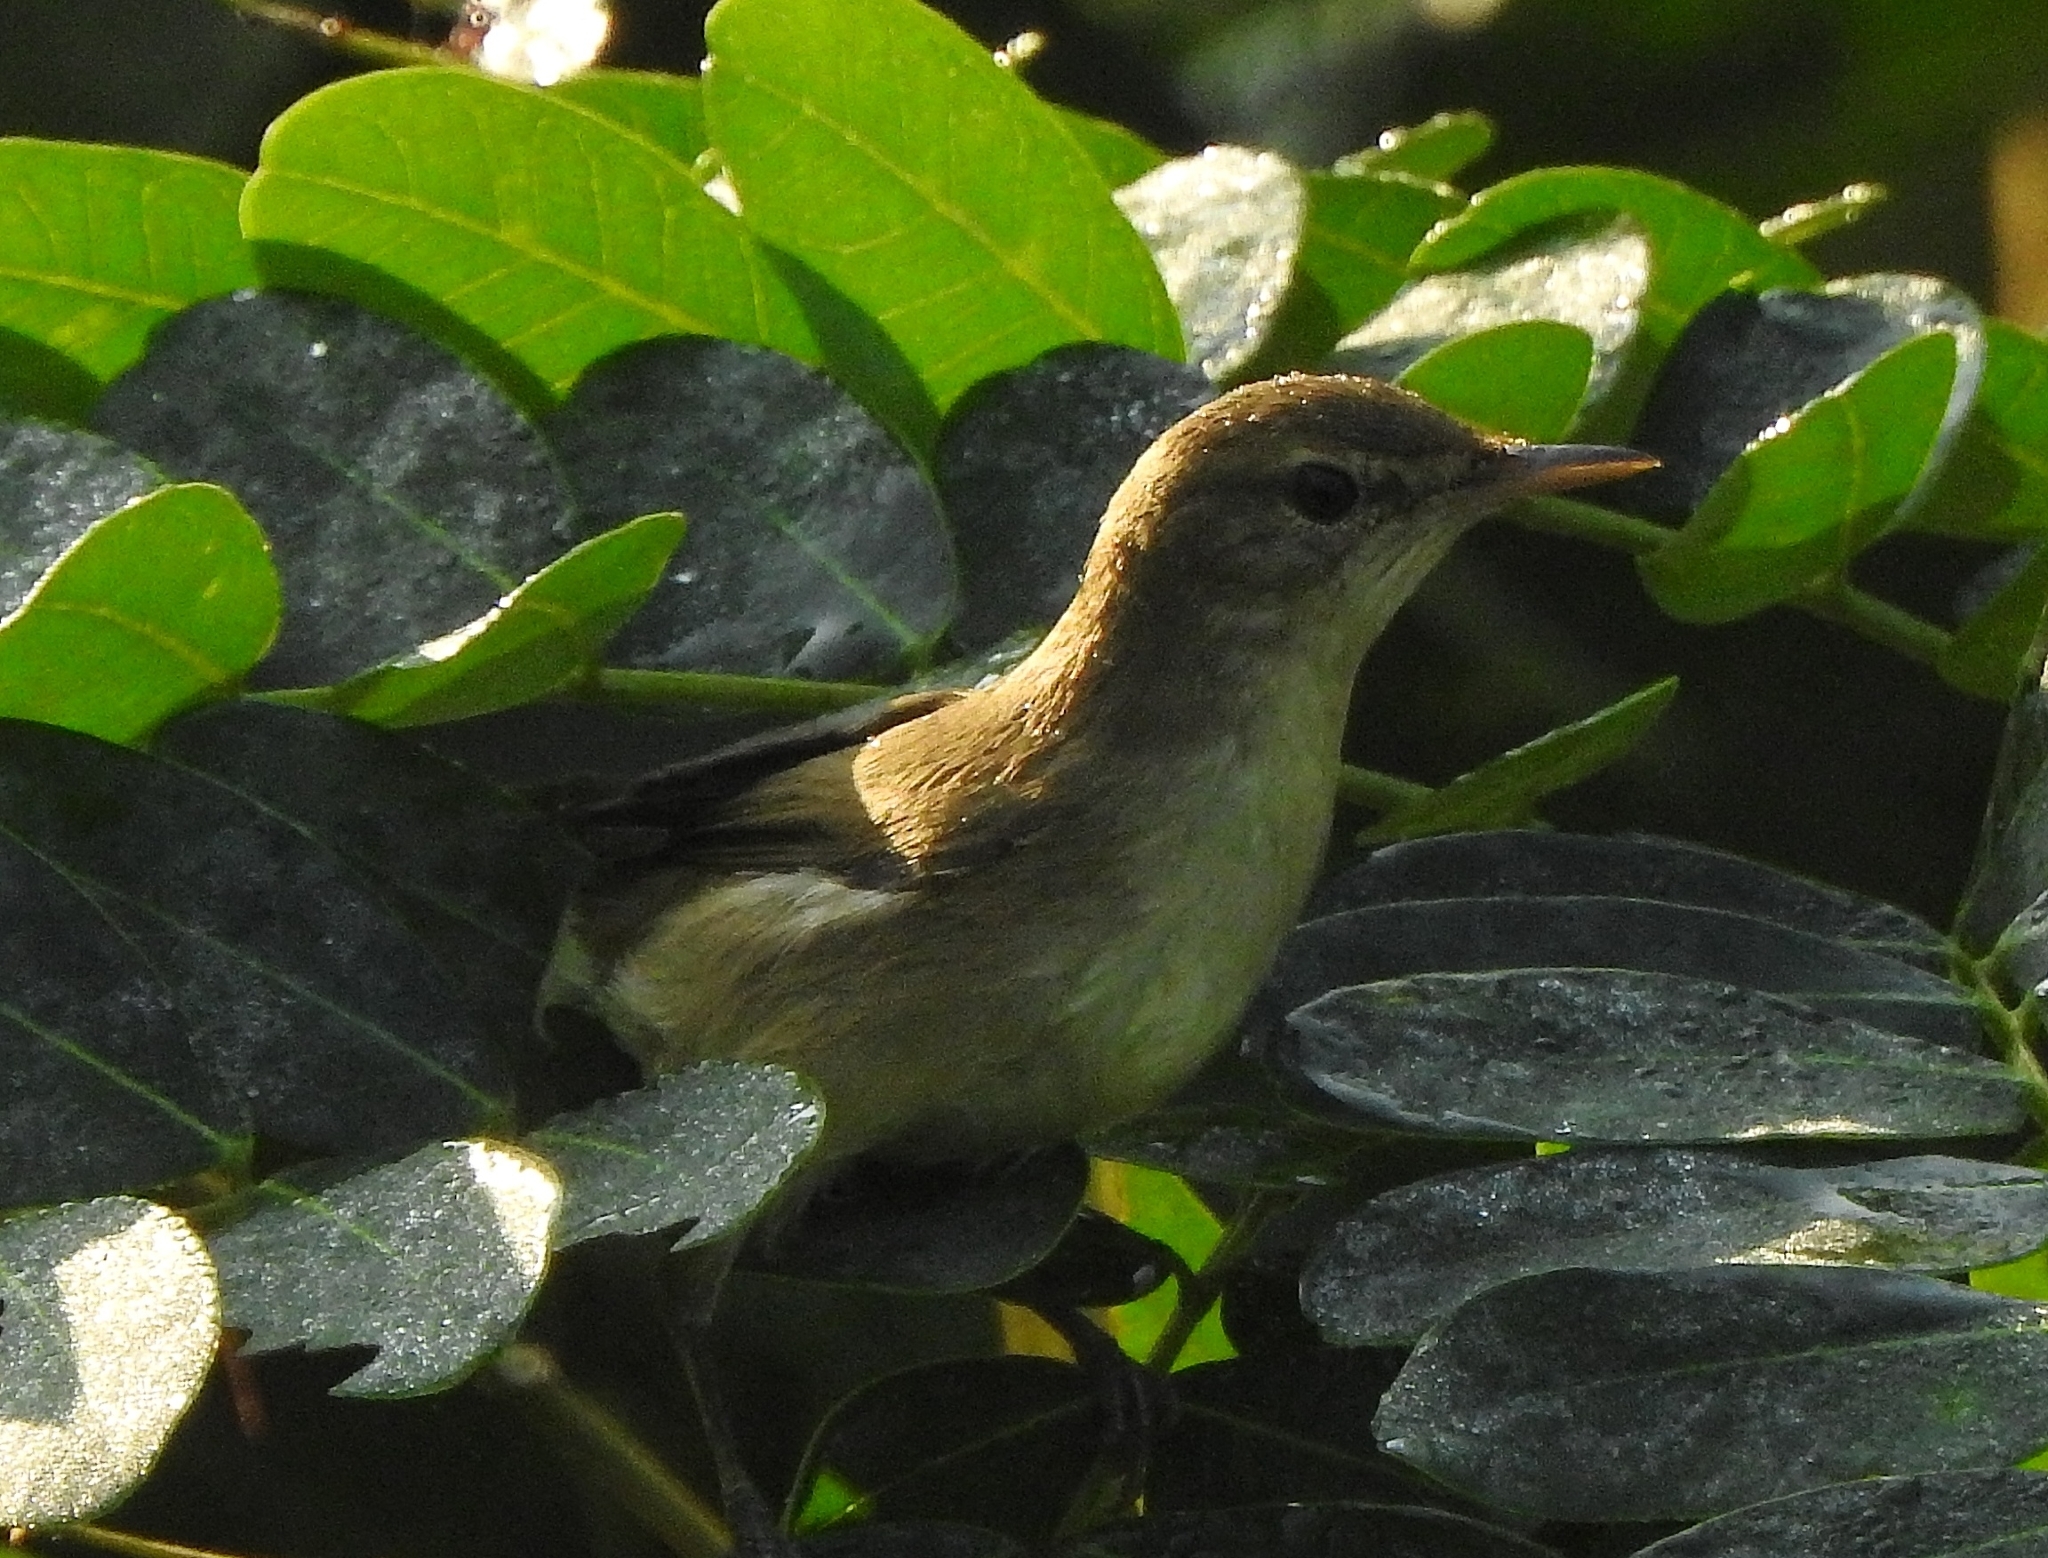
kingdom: Animalia
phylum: Chordata
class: Aves
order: Passeriformes
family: Acrocephalidae
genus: Acrocephalus
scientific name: Acrocephalus dumetorum
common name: Blyth's reed warbler
